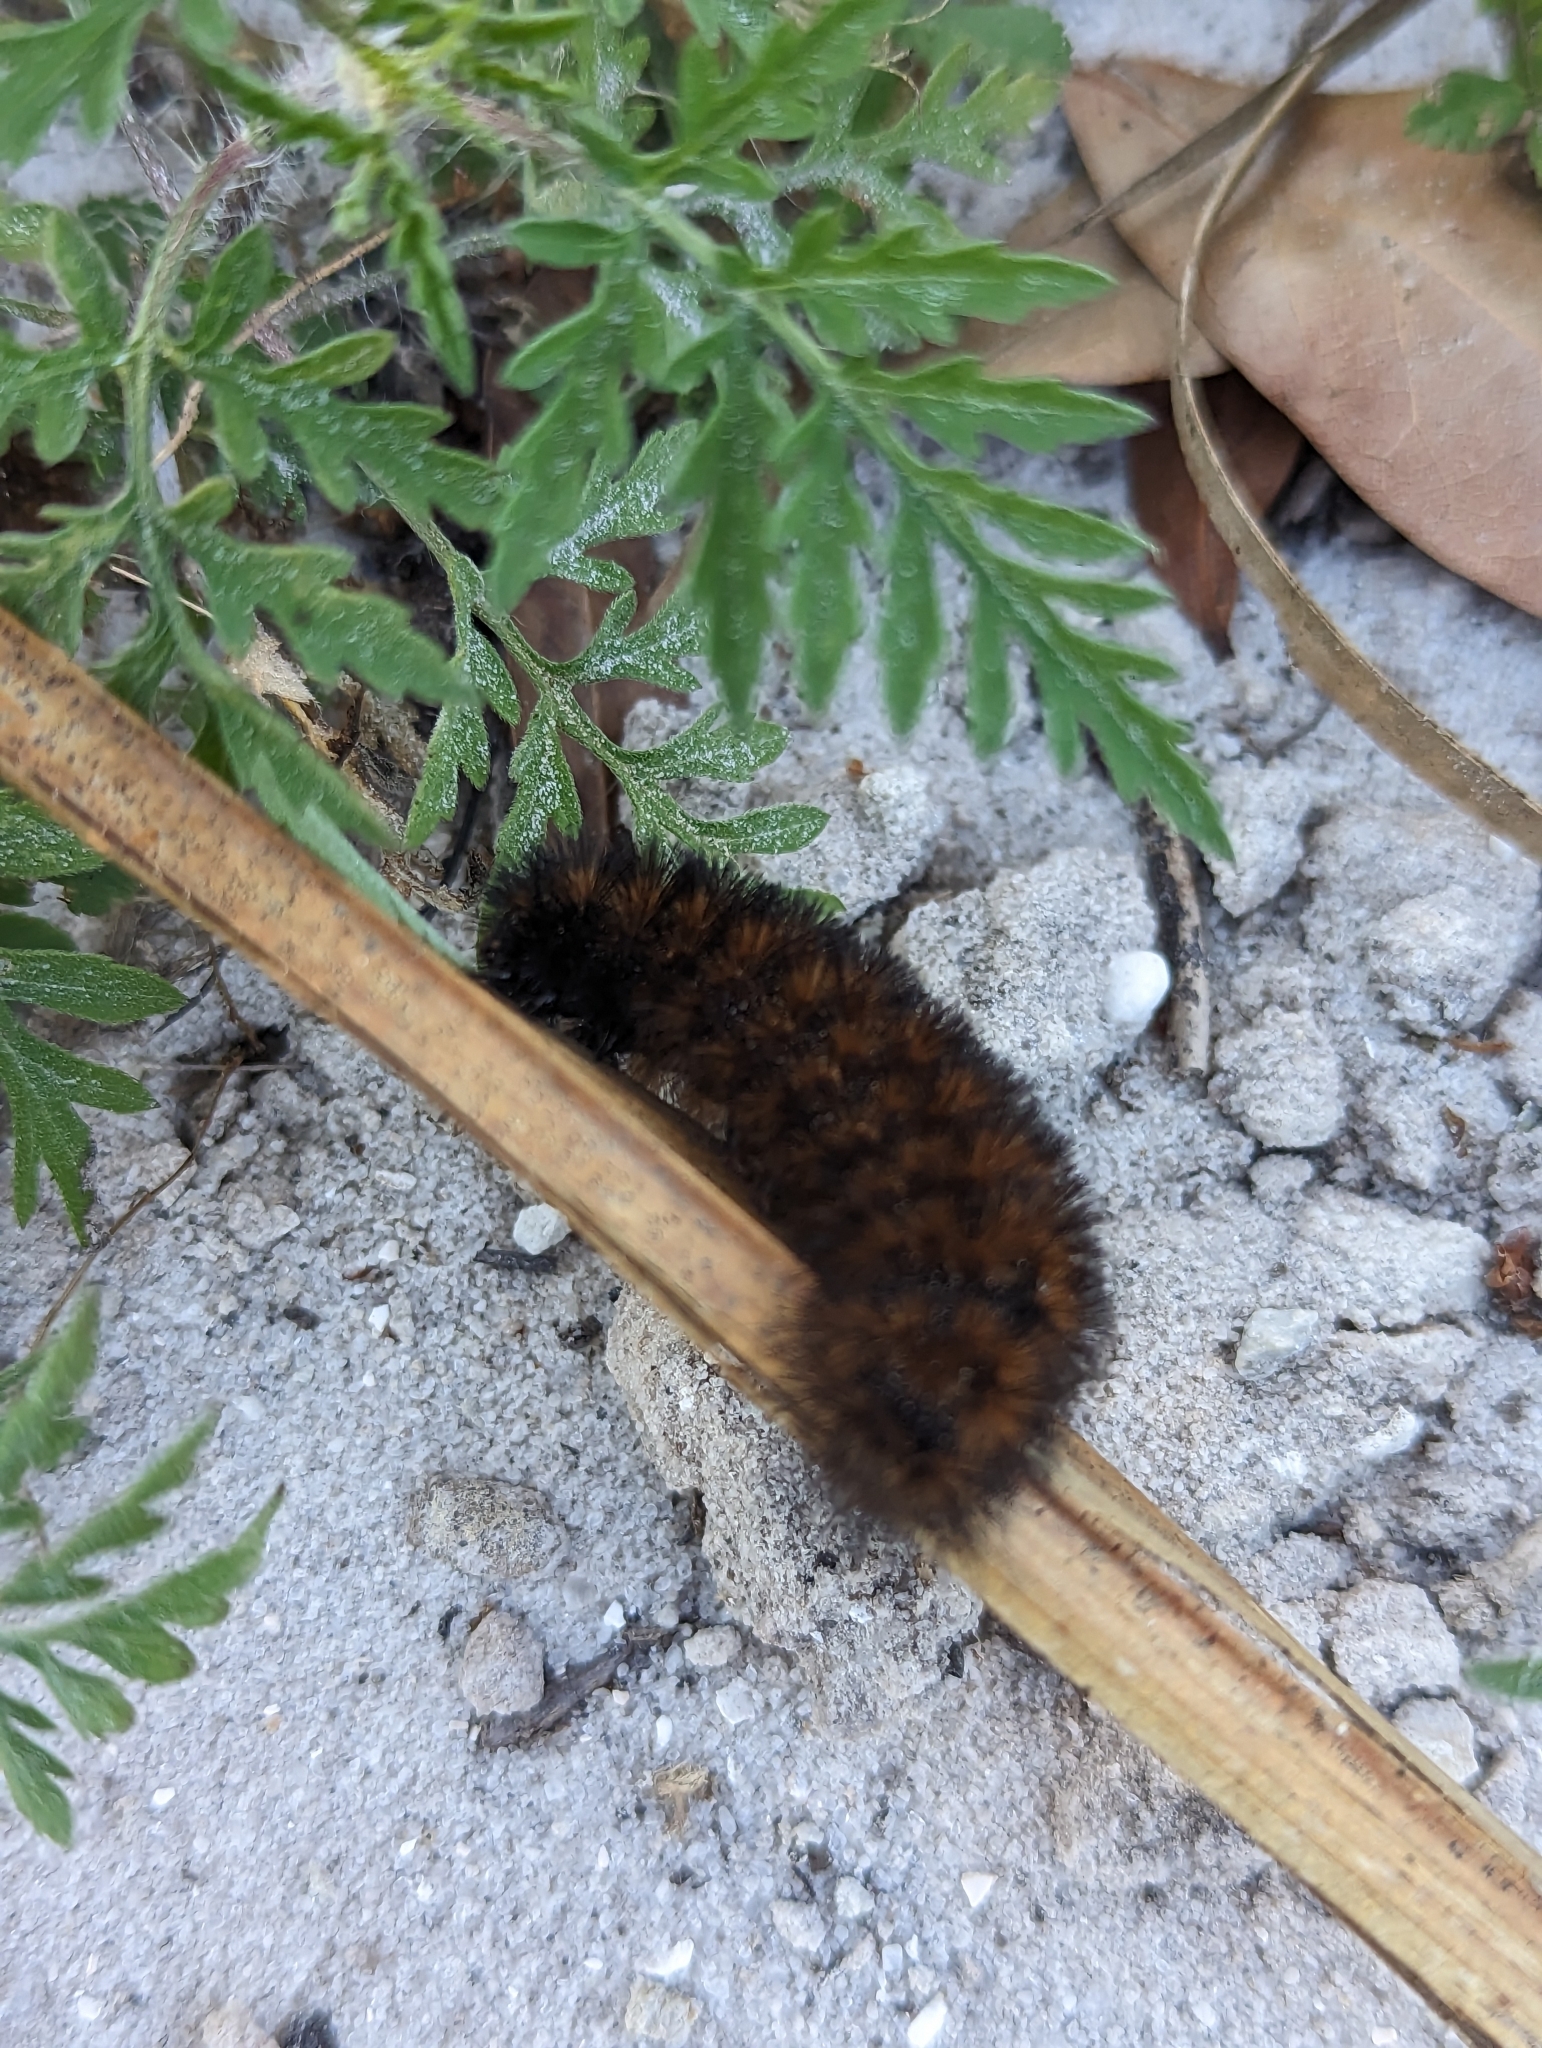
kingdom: Animalia
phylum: Arthropoda
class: Insecta
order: Lepidoptera
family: Erebidae
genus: Pyrrharctia
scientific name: Pyrrharctia isabella
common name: Isabella tiger moth
